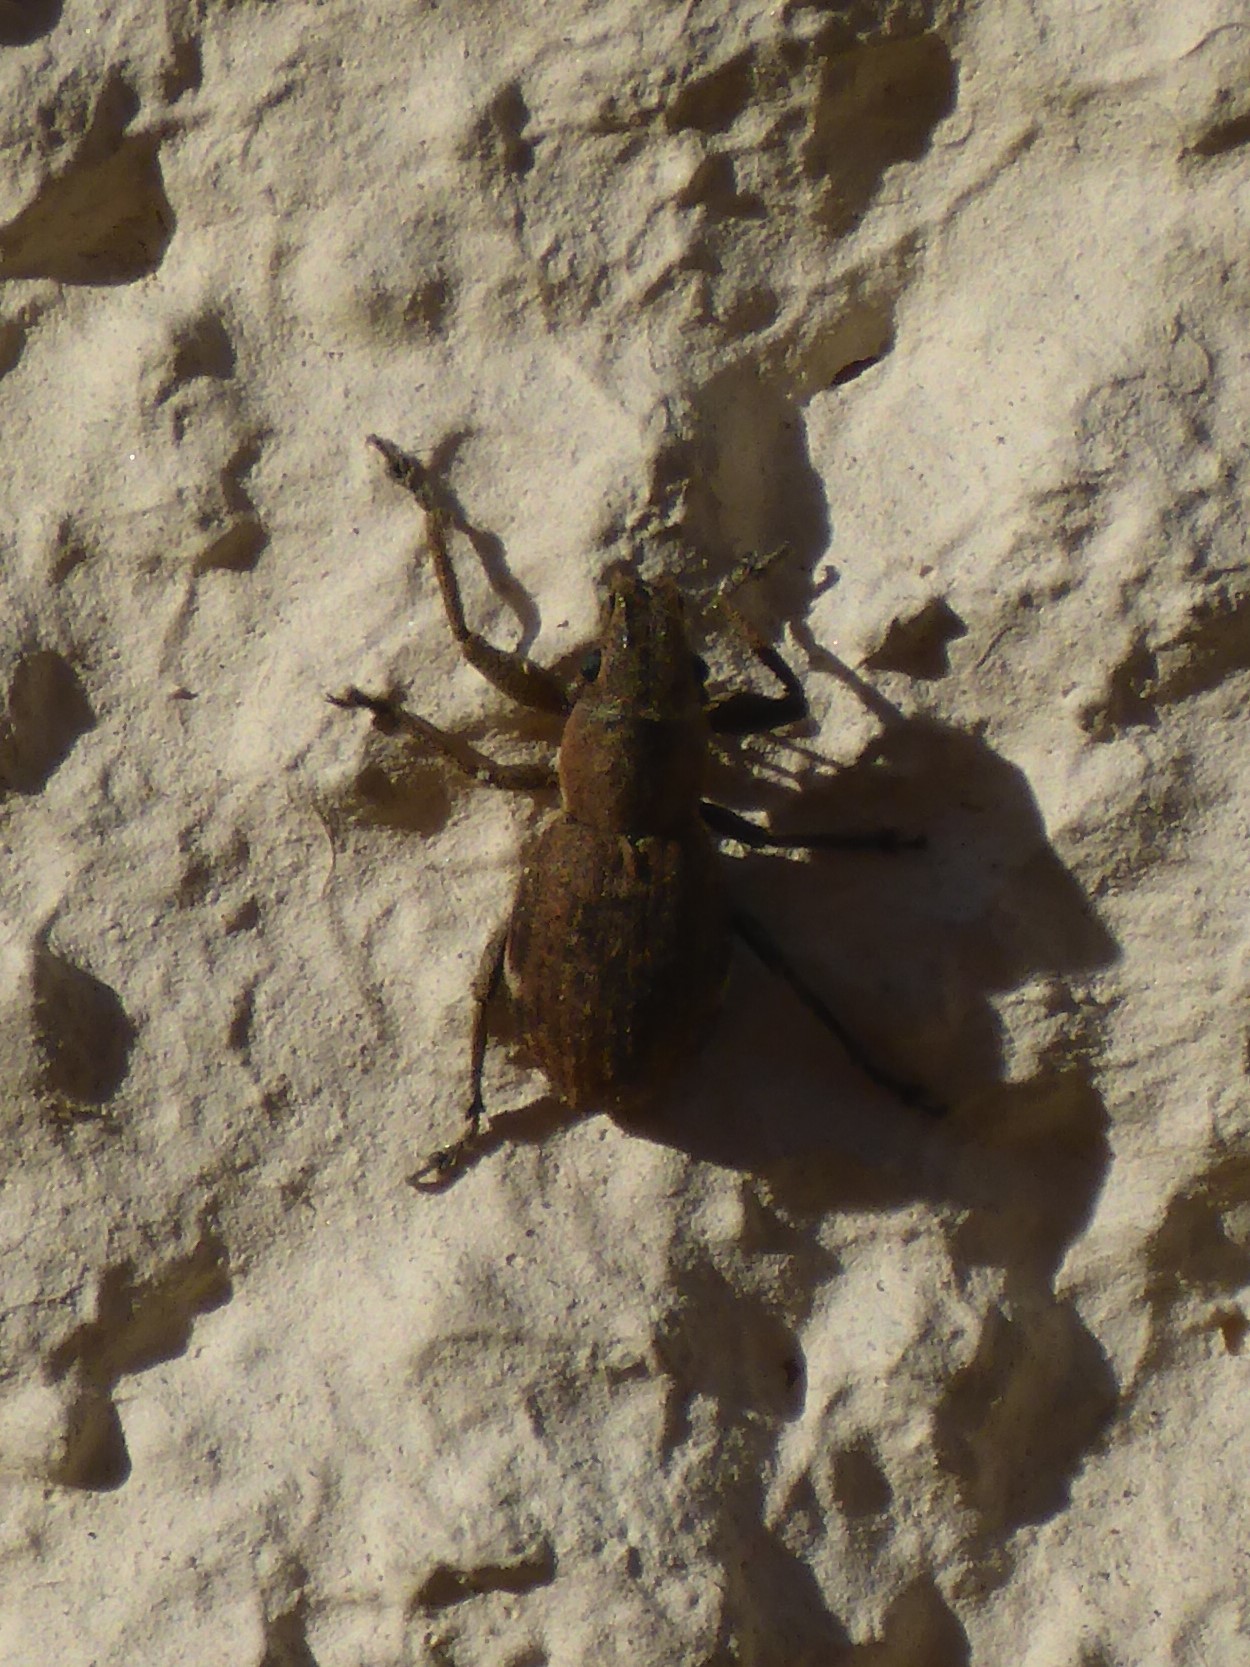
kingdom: Animalia
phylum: Arthropoda
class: Insecta
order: Coleoptera
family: Curculionidae
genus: Naupactus
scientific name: Naupactus cervinus
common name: Fuller rose beetle
